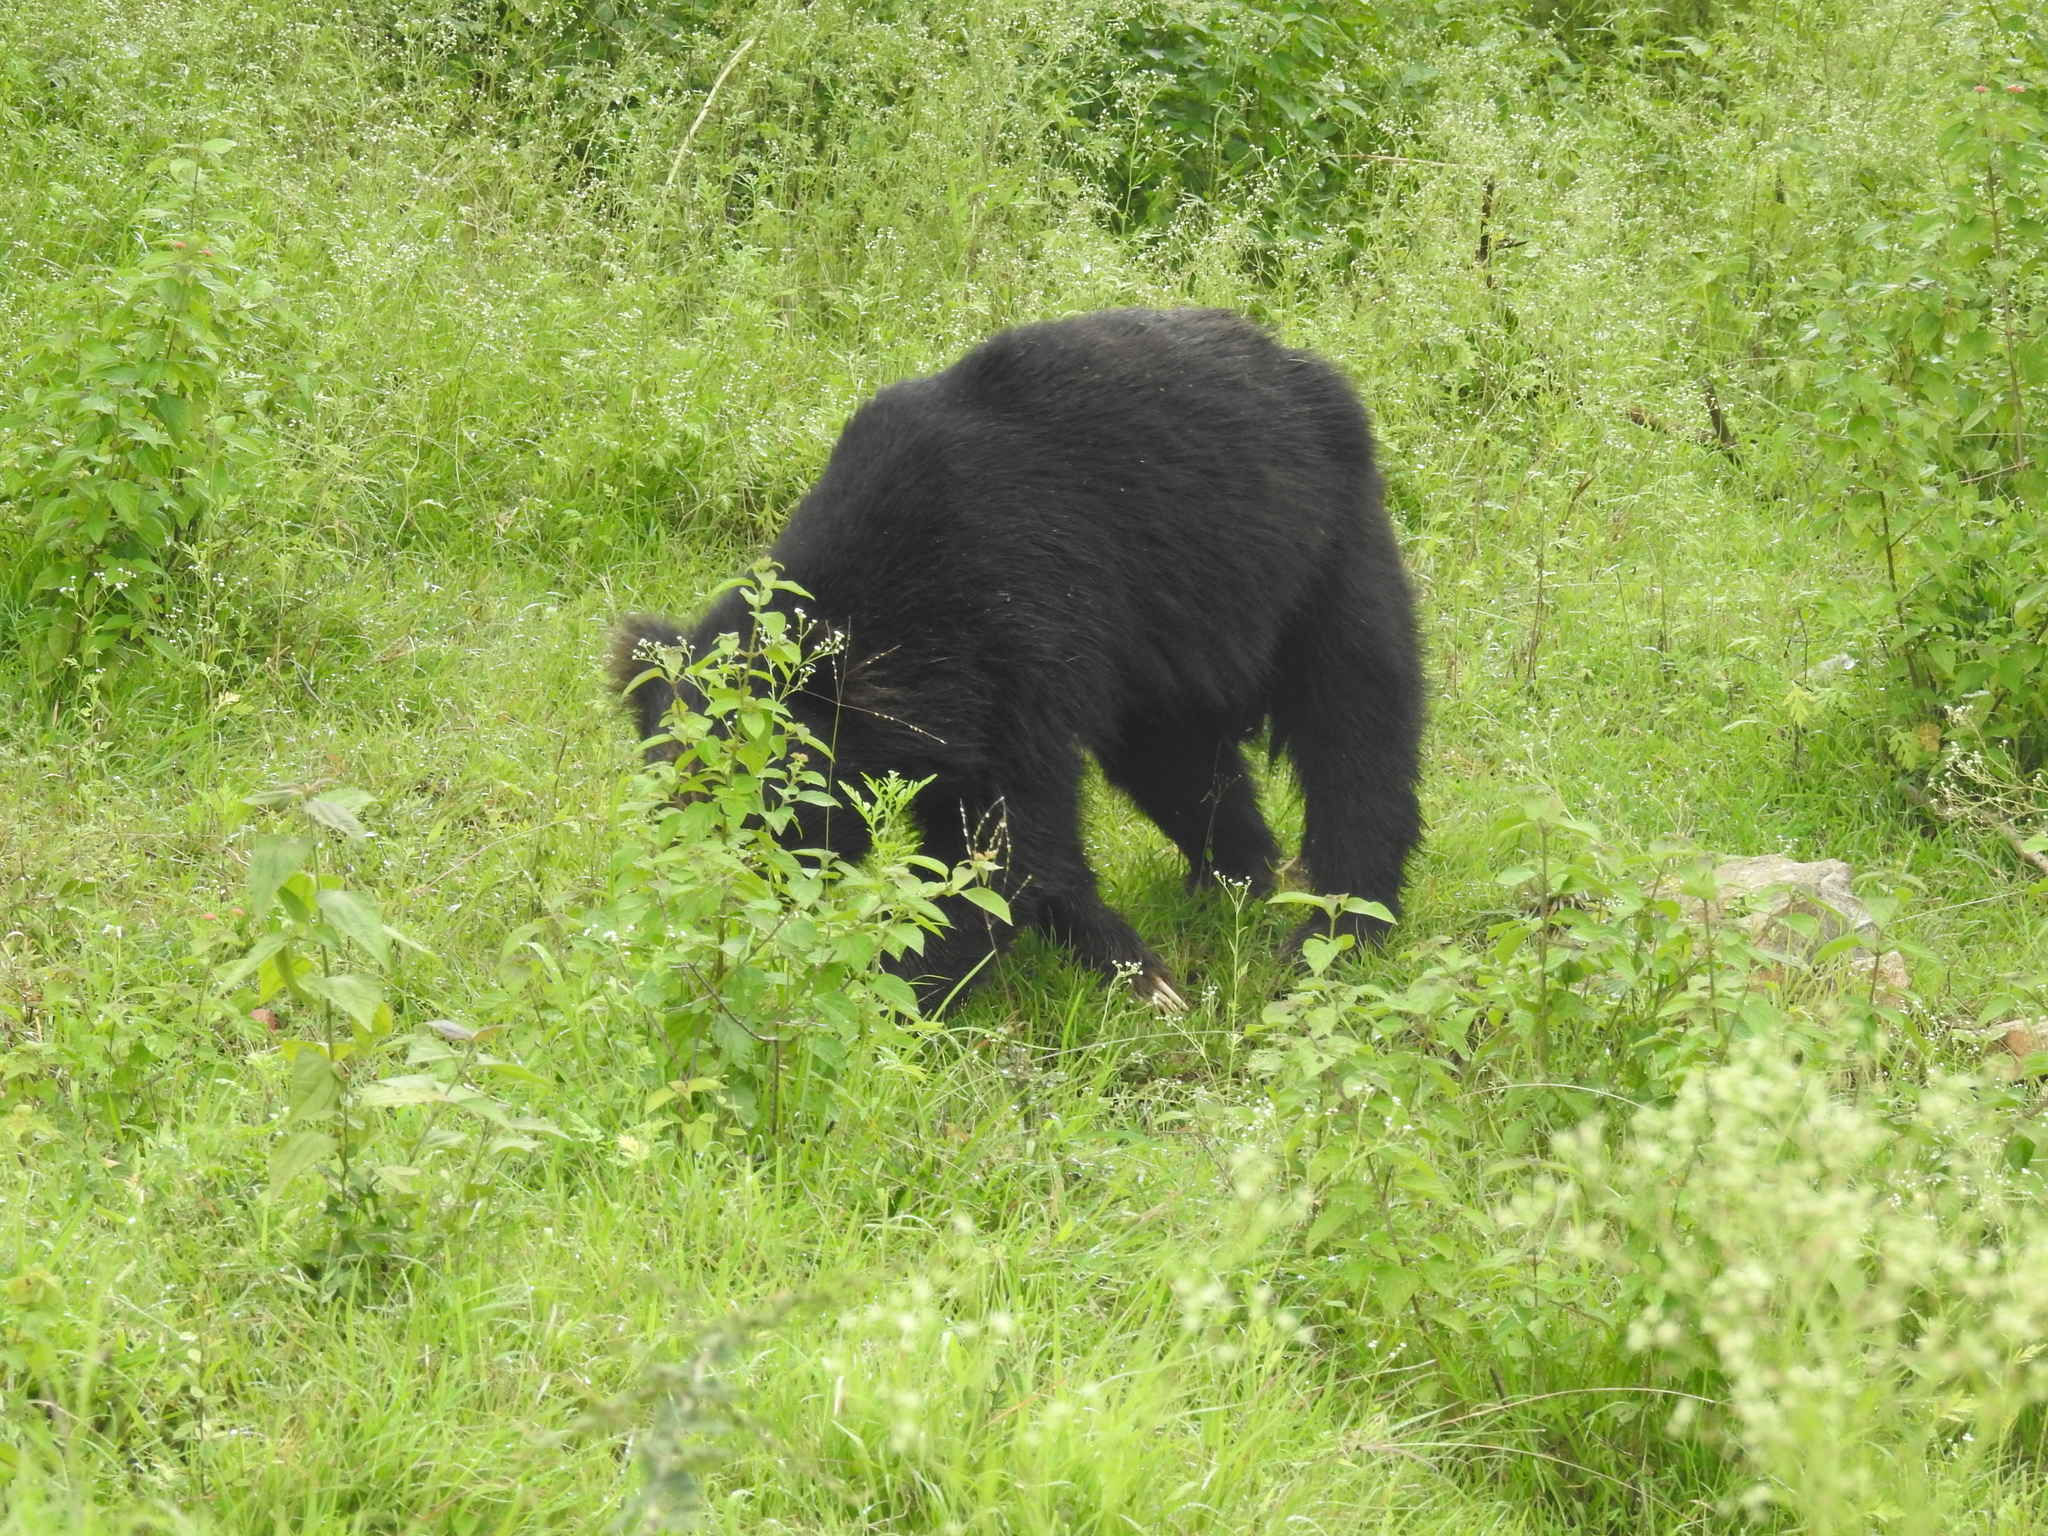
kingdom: Animalia
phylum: Chordata
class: Mammalia
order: Carnivora
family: Ursidae
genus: Melursus
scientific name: Melursus ursinus
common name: Sloth bear
